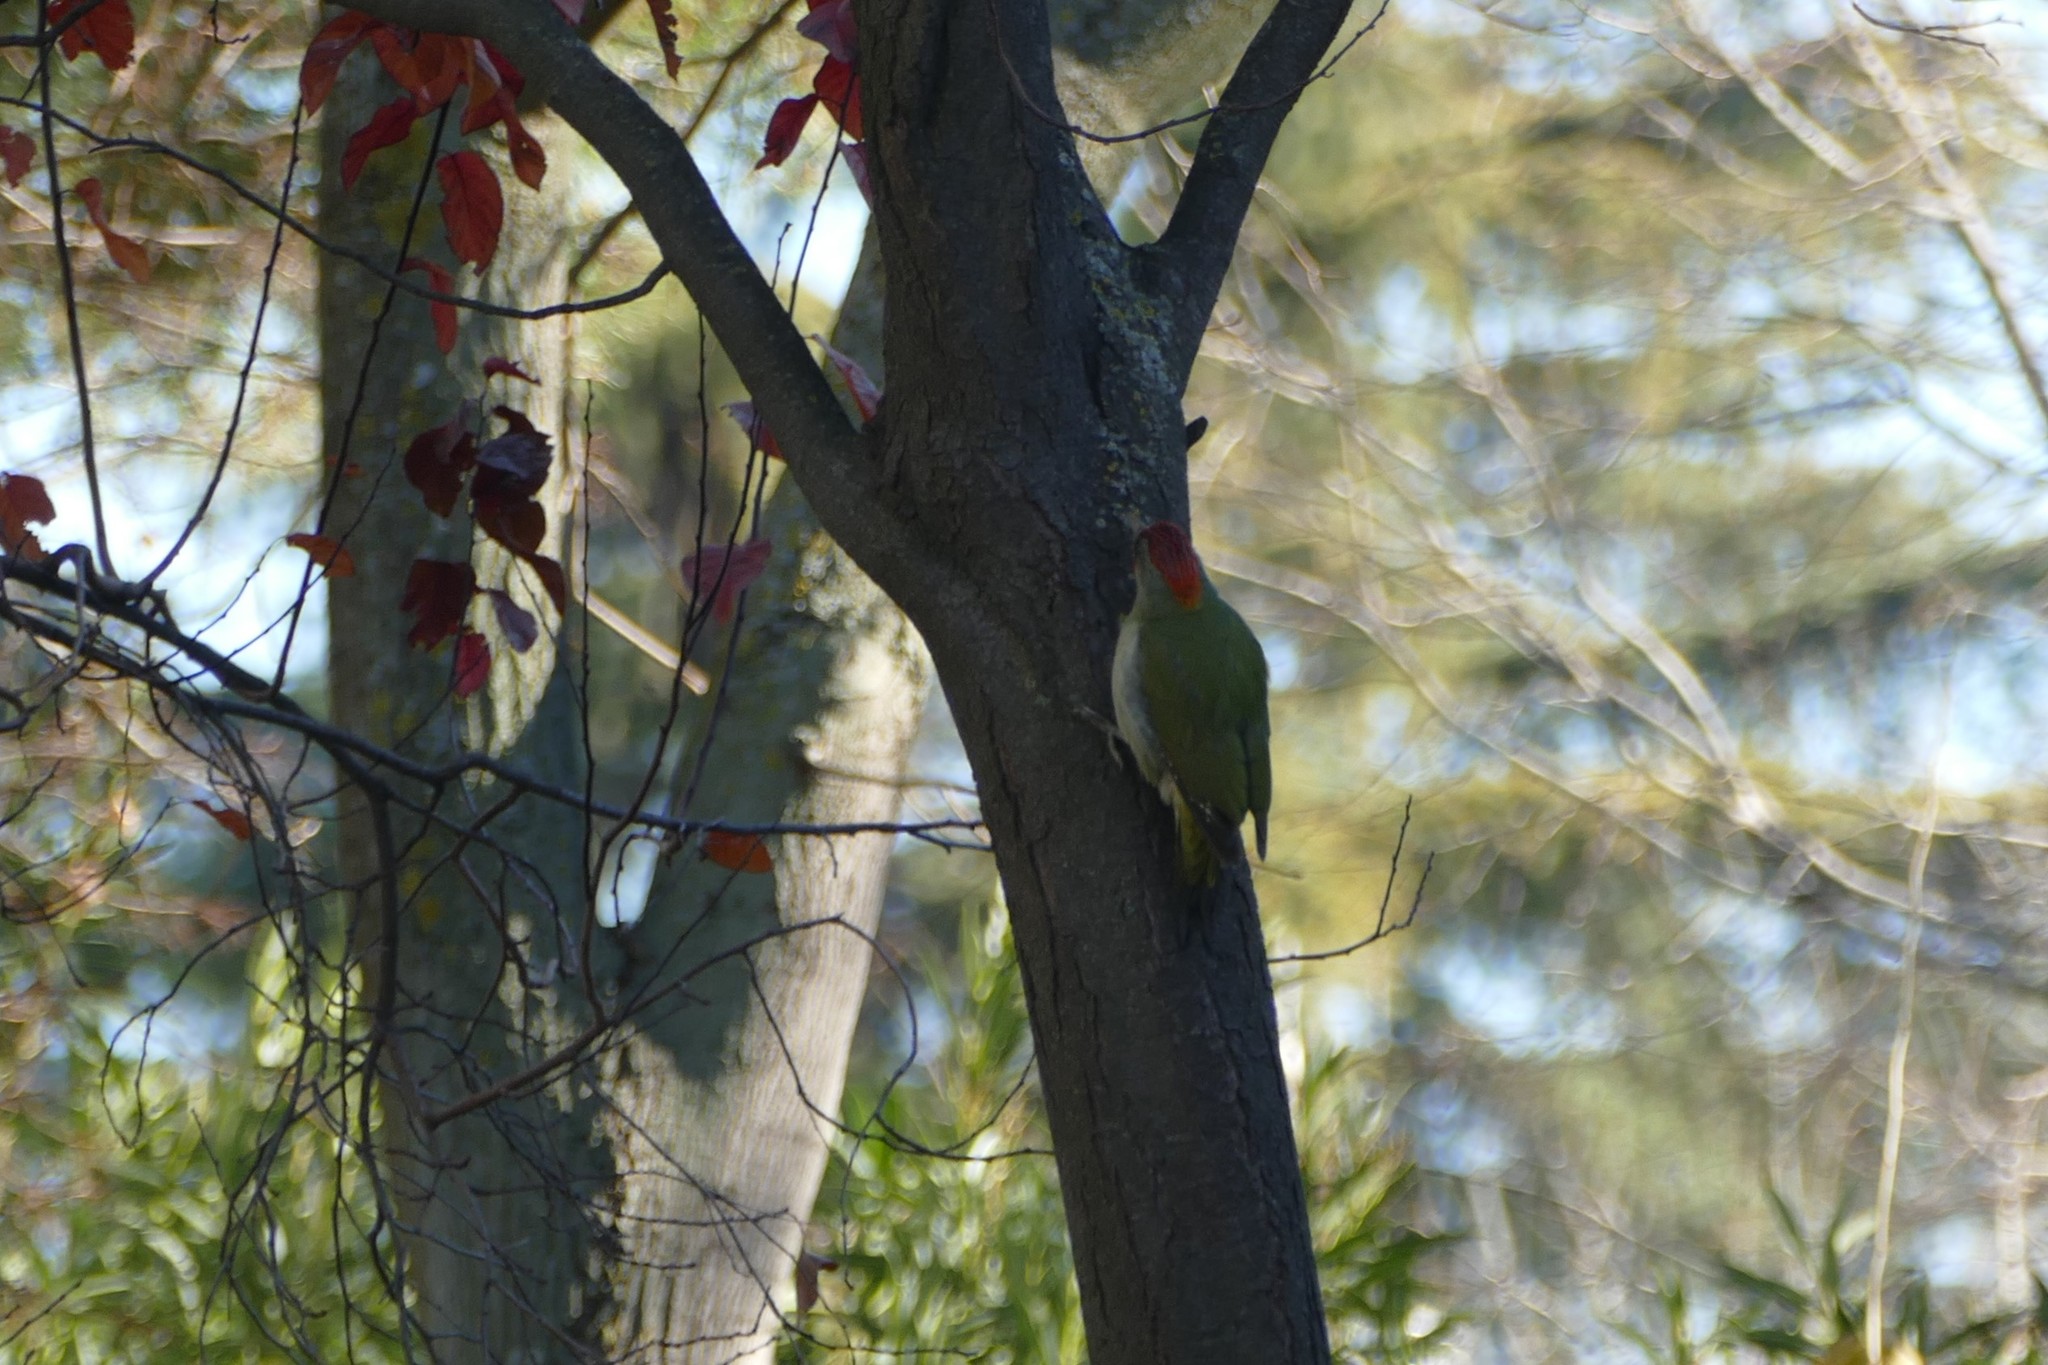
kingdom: Animalia
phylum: Chordata
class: Aves
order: Piciformes
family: Picidae
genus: Picus
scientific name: Picus sharpei
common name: Iberian green woodpecker
